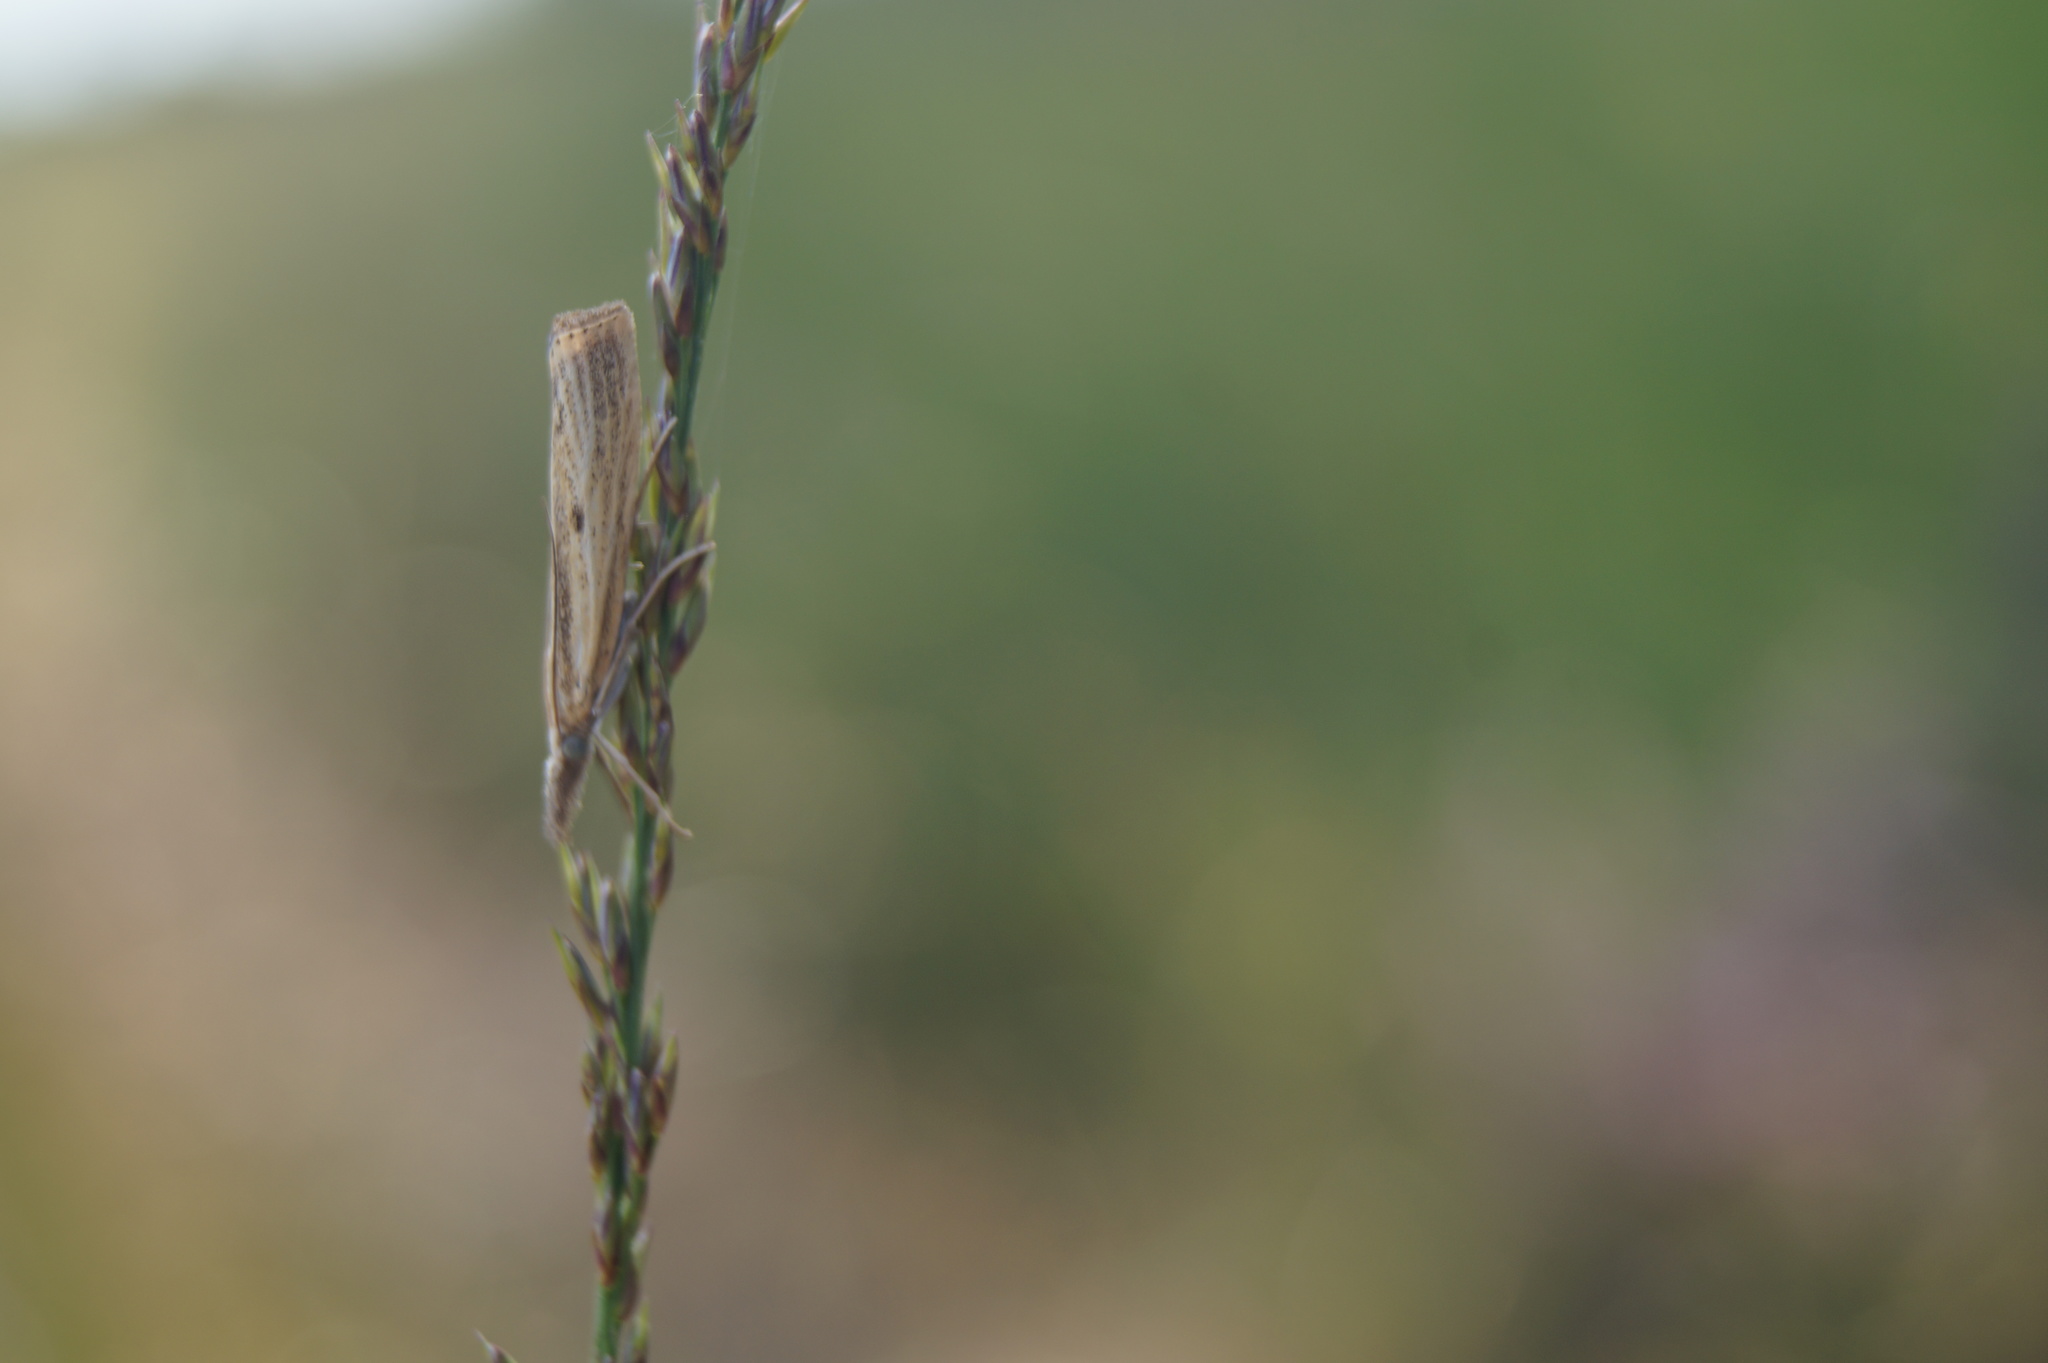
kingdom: Animalia
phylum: Arthropoda
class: Insecta
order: Lepidoptera
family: Crambidae
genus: Agriphila
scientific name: Agriphila inquinatella
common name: Barred grass-veneer
